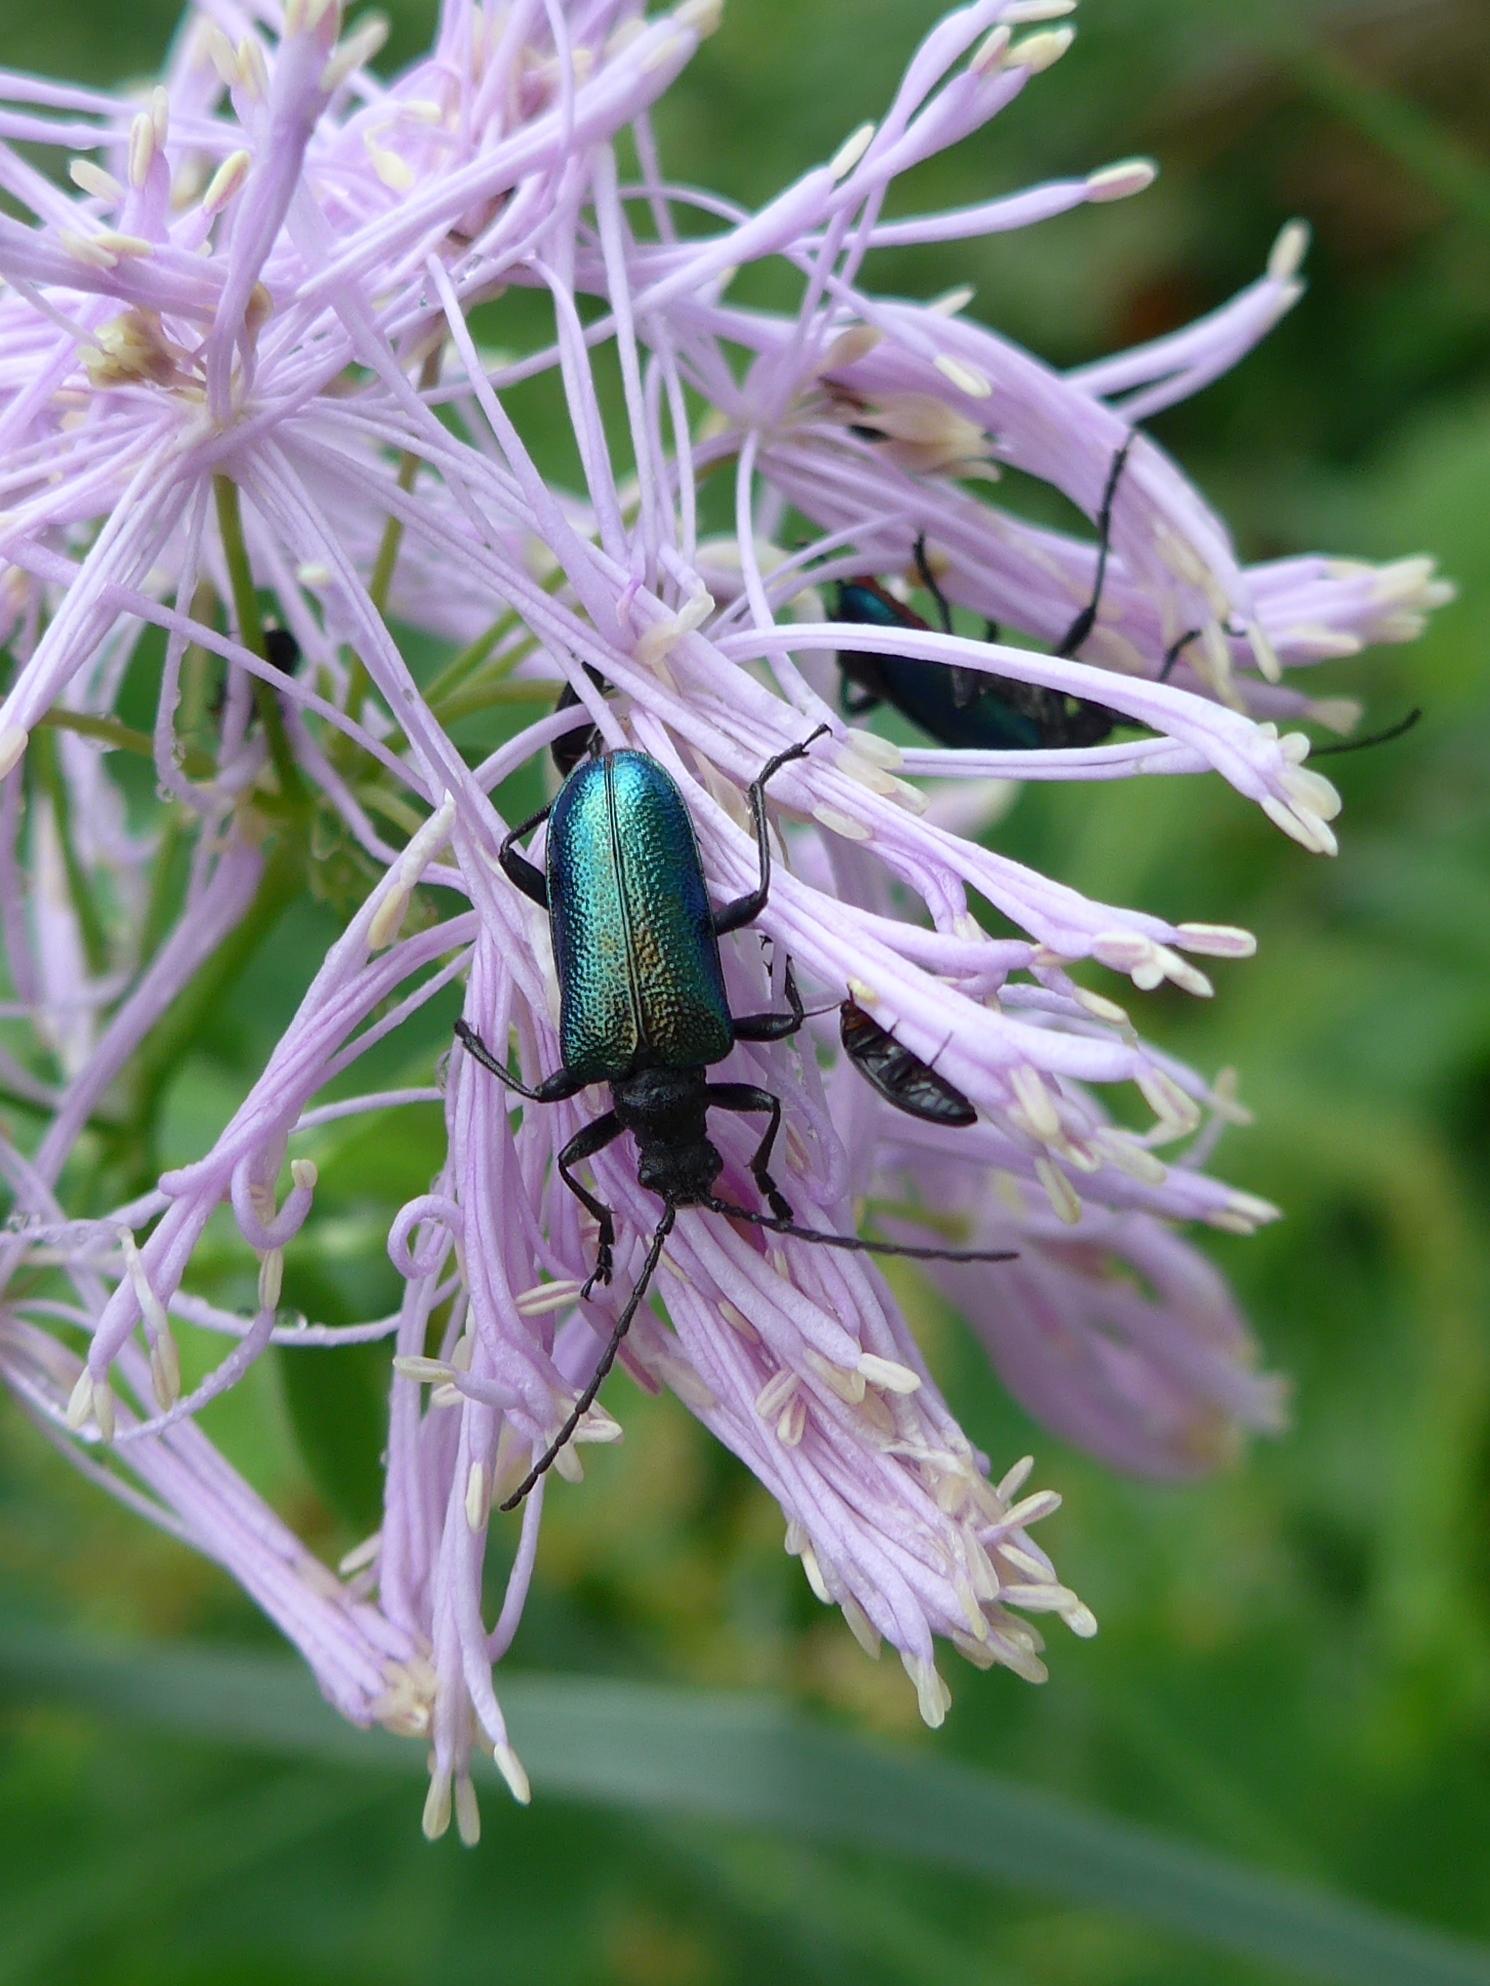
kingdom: Animalia
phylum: Arthropoda
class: Insecta
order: Coleoptera
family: Cerambycidae
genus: Gaurotes
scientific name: Gaurotes virginea
